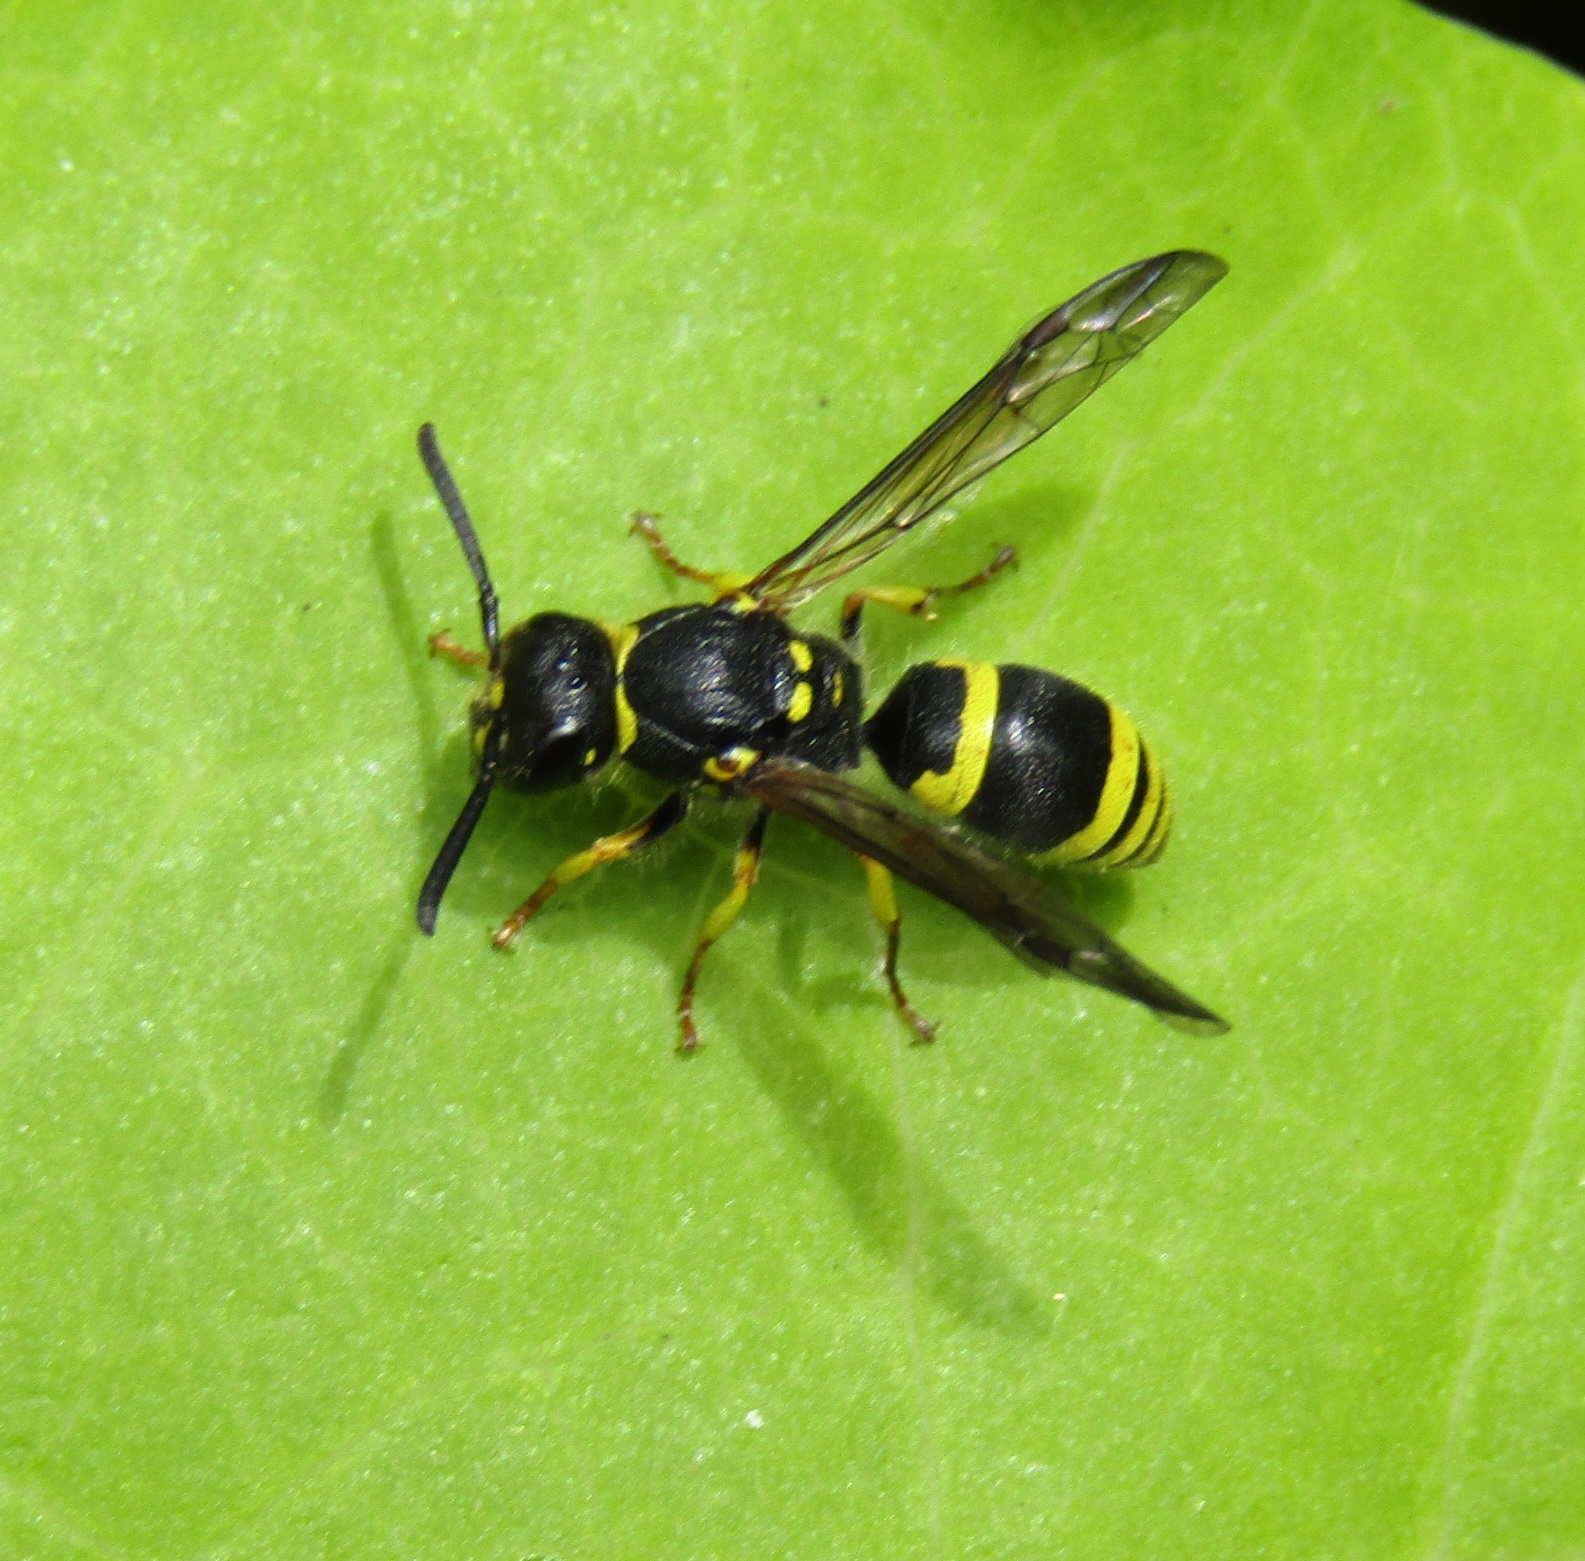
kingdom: Animalia
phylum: Arthropoda
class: Insecta
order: Hymenoptera
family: Vespidae
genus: Ancistrocerus
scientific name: Ancistrocerus gazella
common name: European tube wasp
